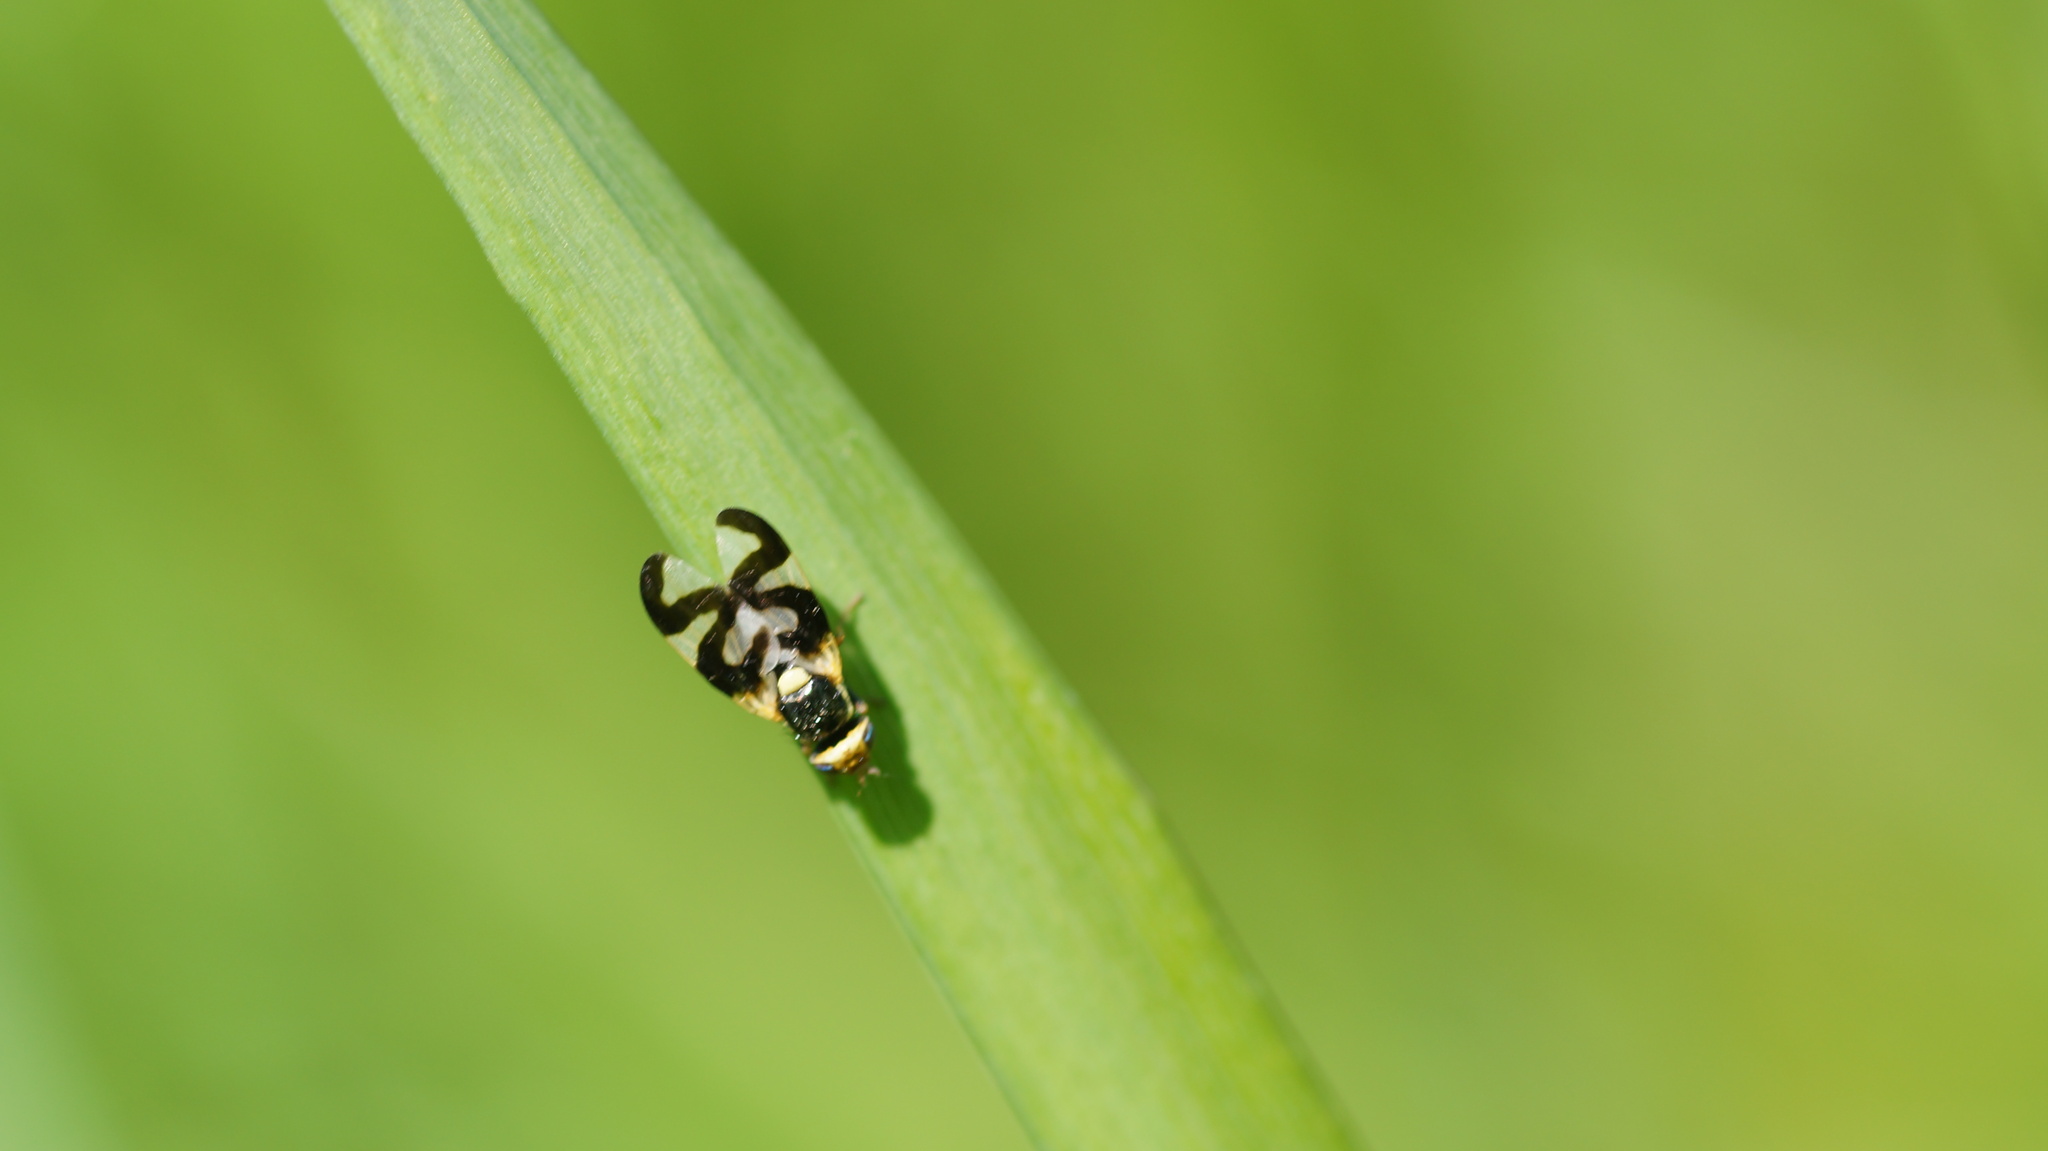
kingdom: Animalia
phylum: Arthropoda
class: Insecta
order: Diptera
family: Tephritidae
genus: Urophora
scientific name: Urophora cardui
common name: Fruit fly
